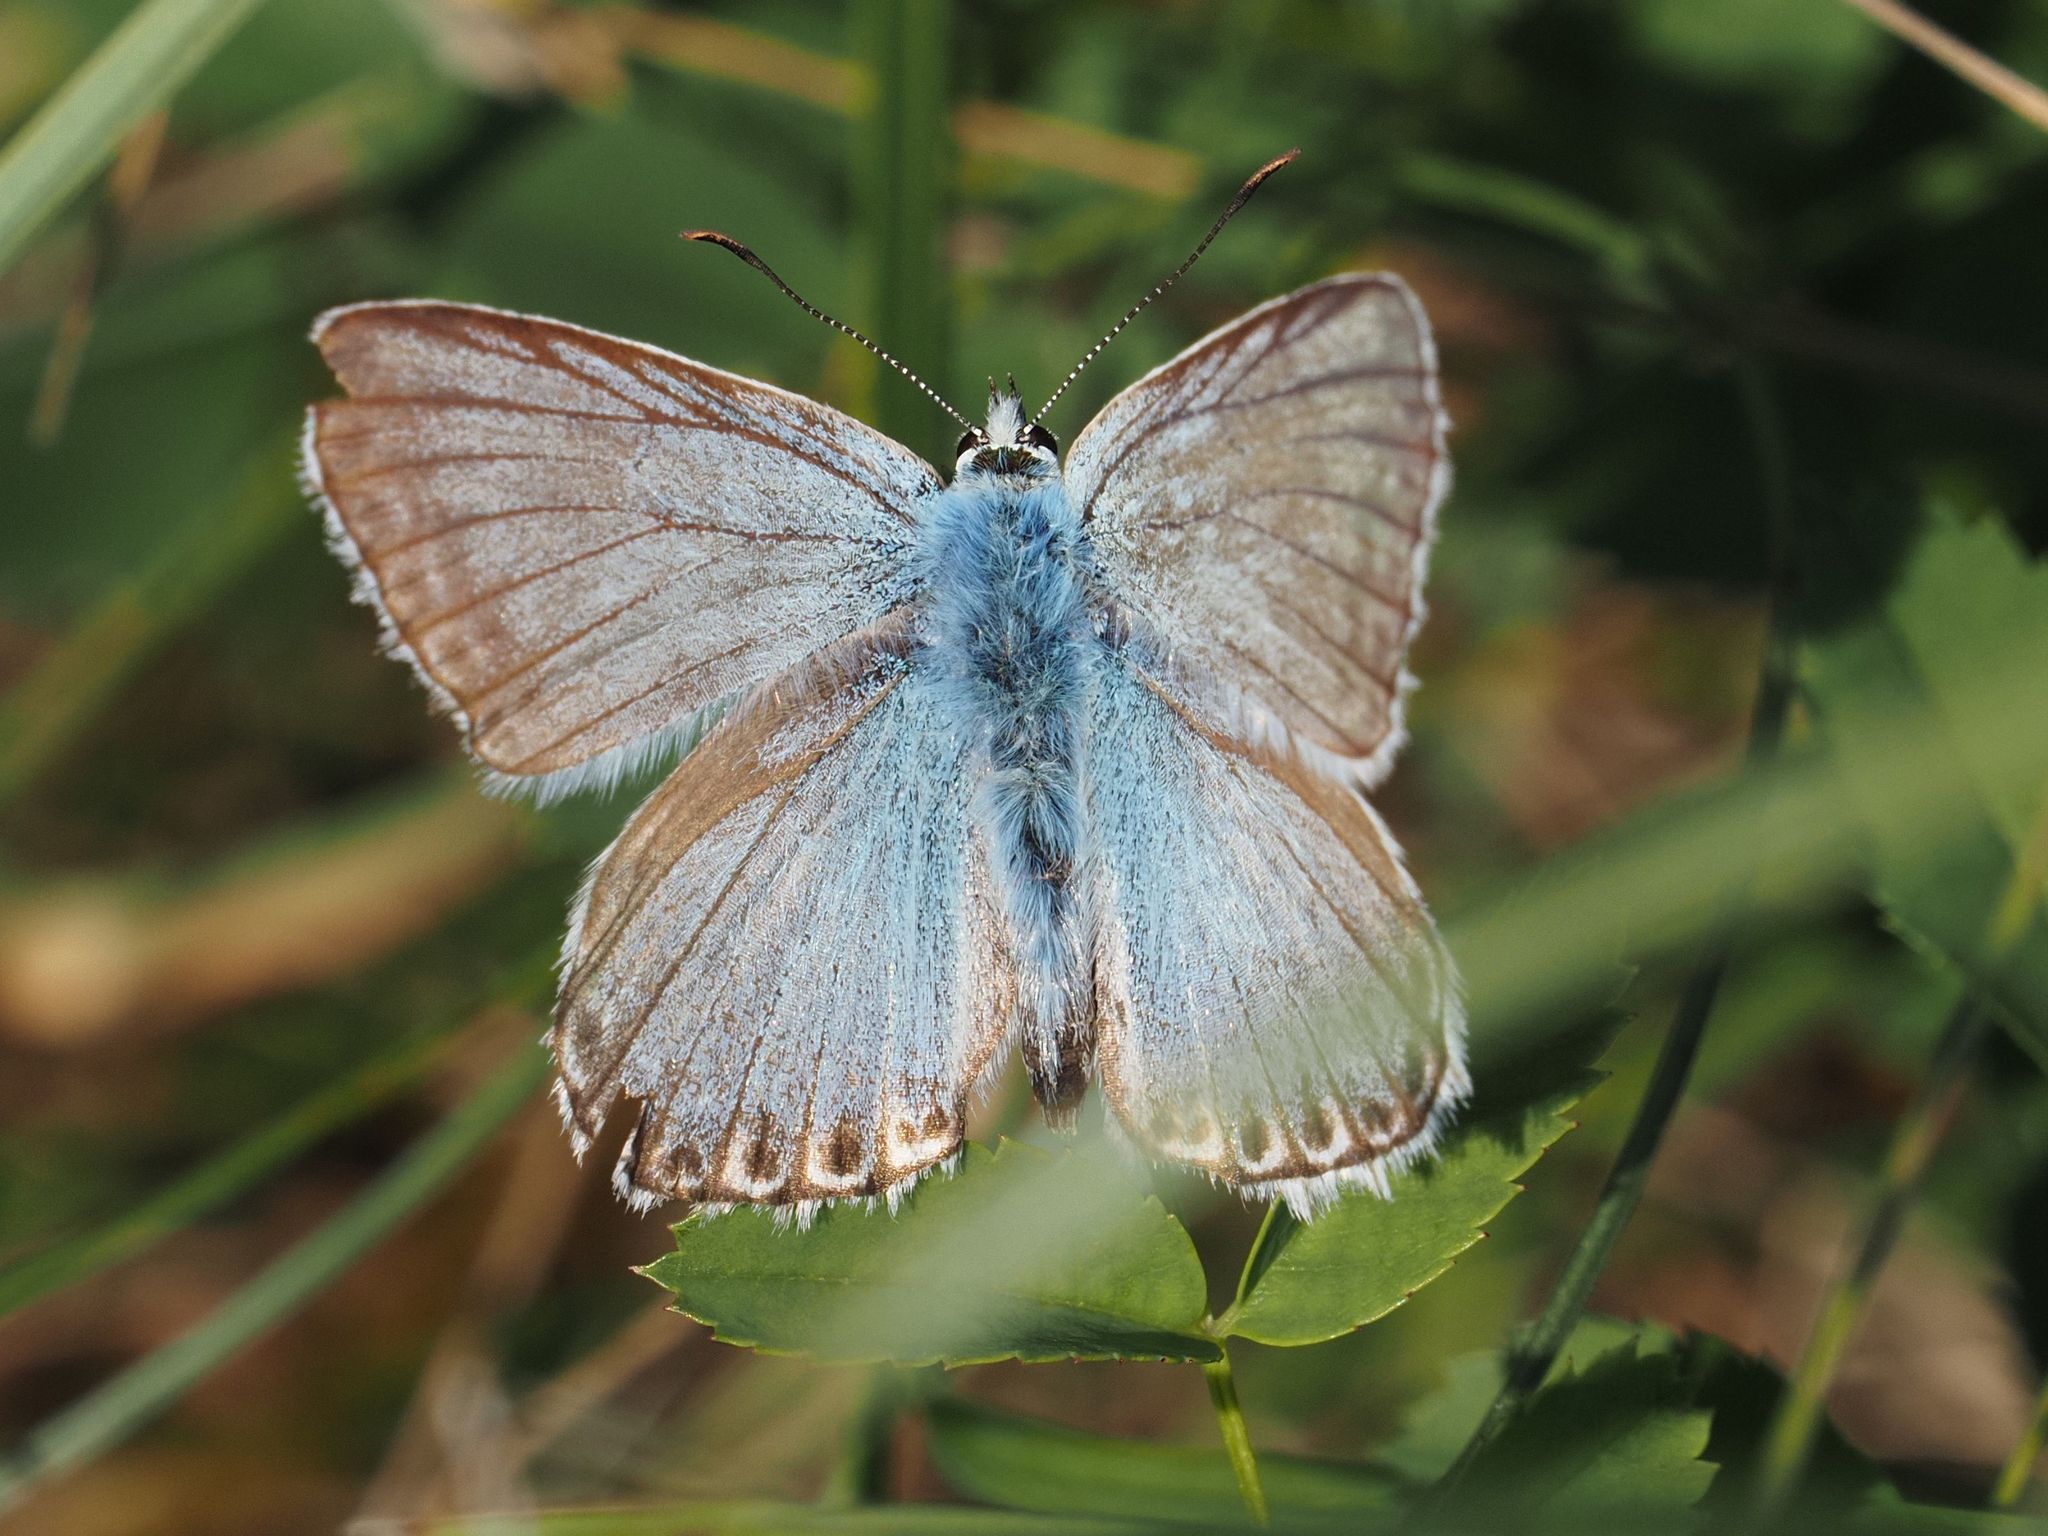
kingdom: Animalia
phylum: Arthropoda
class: Insecta
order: Lepidoptera
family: Lycaenidae
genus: Lysandra
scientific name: Lysandra coridon
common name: Chalkhill blue
